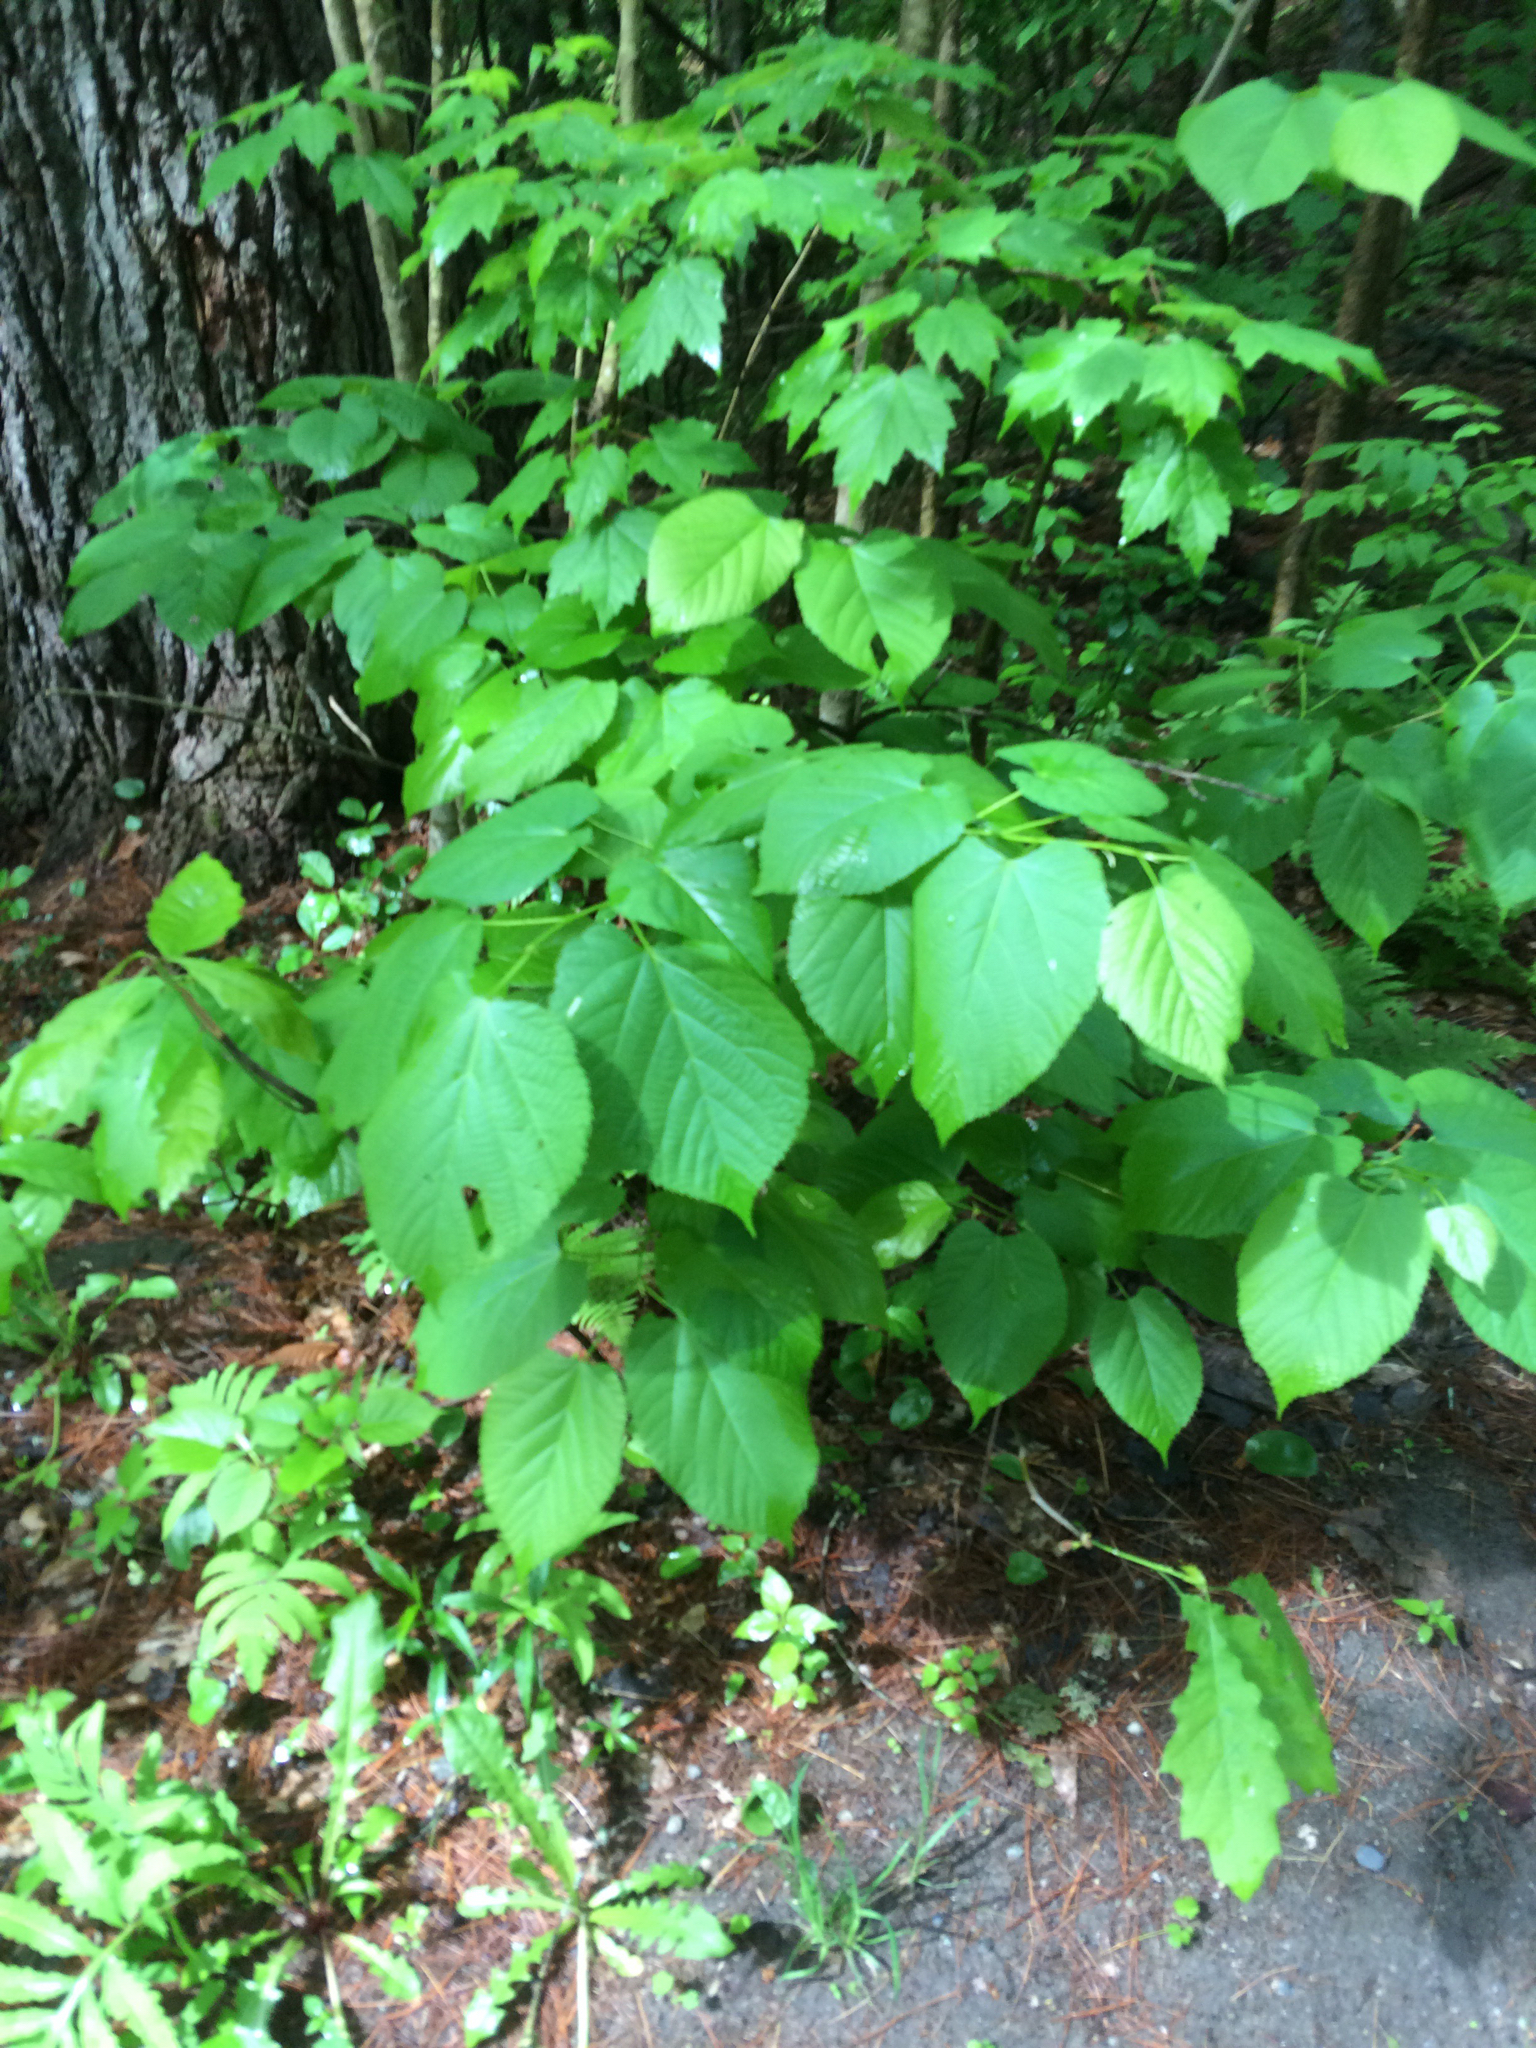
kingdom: Plantae
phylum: Tracheophyta
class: Magnoliopsida
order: Malvales
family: Malvaceae
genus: Tilia
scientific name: Tilia americana
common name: Basswood
